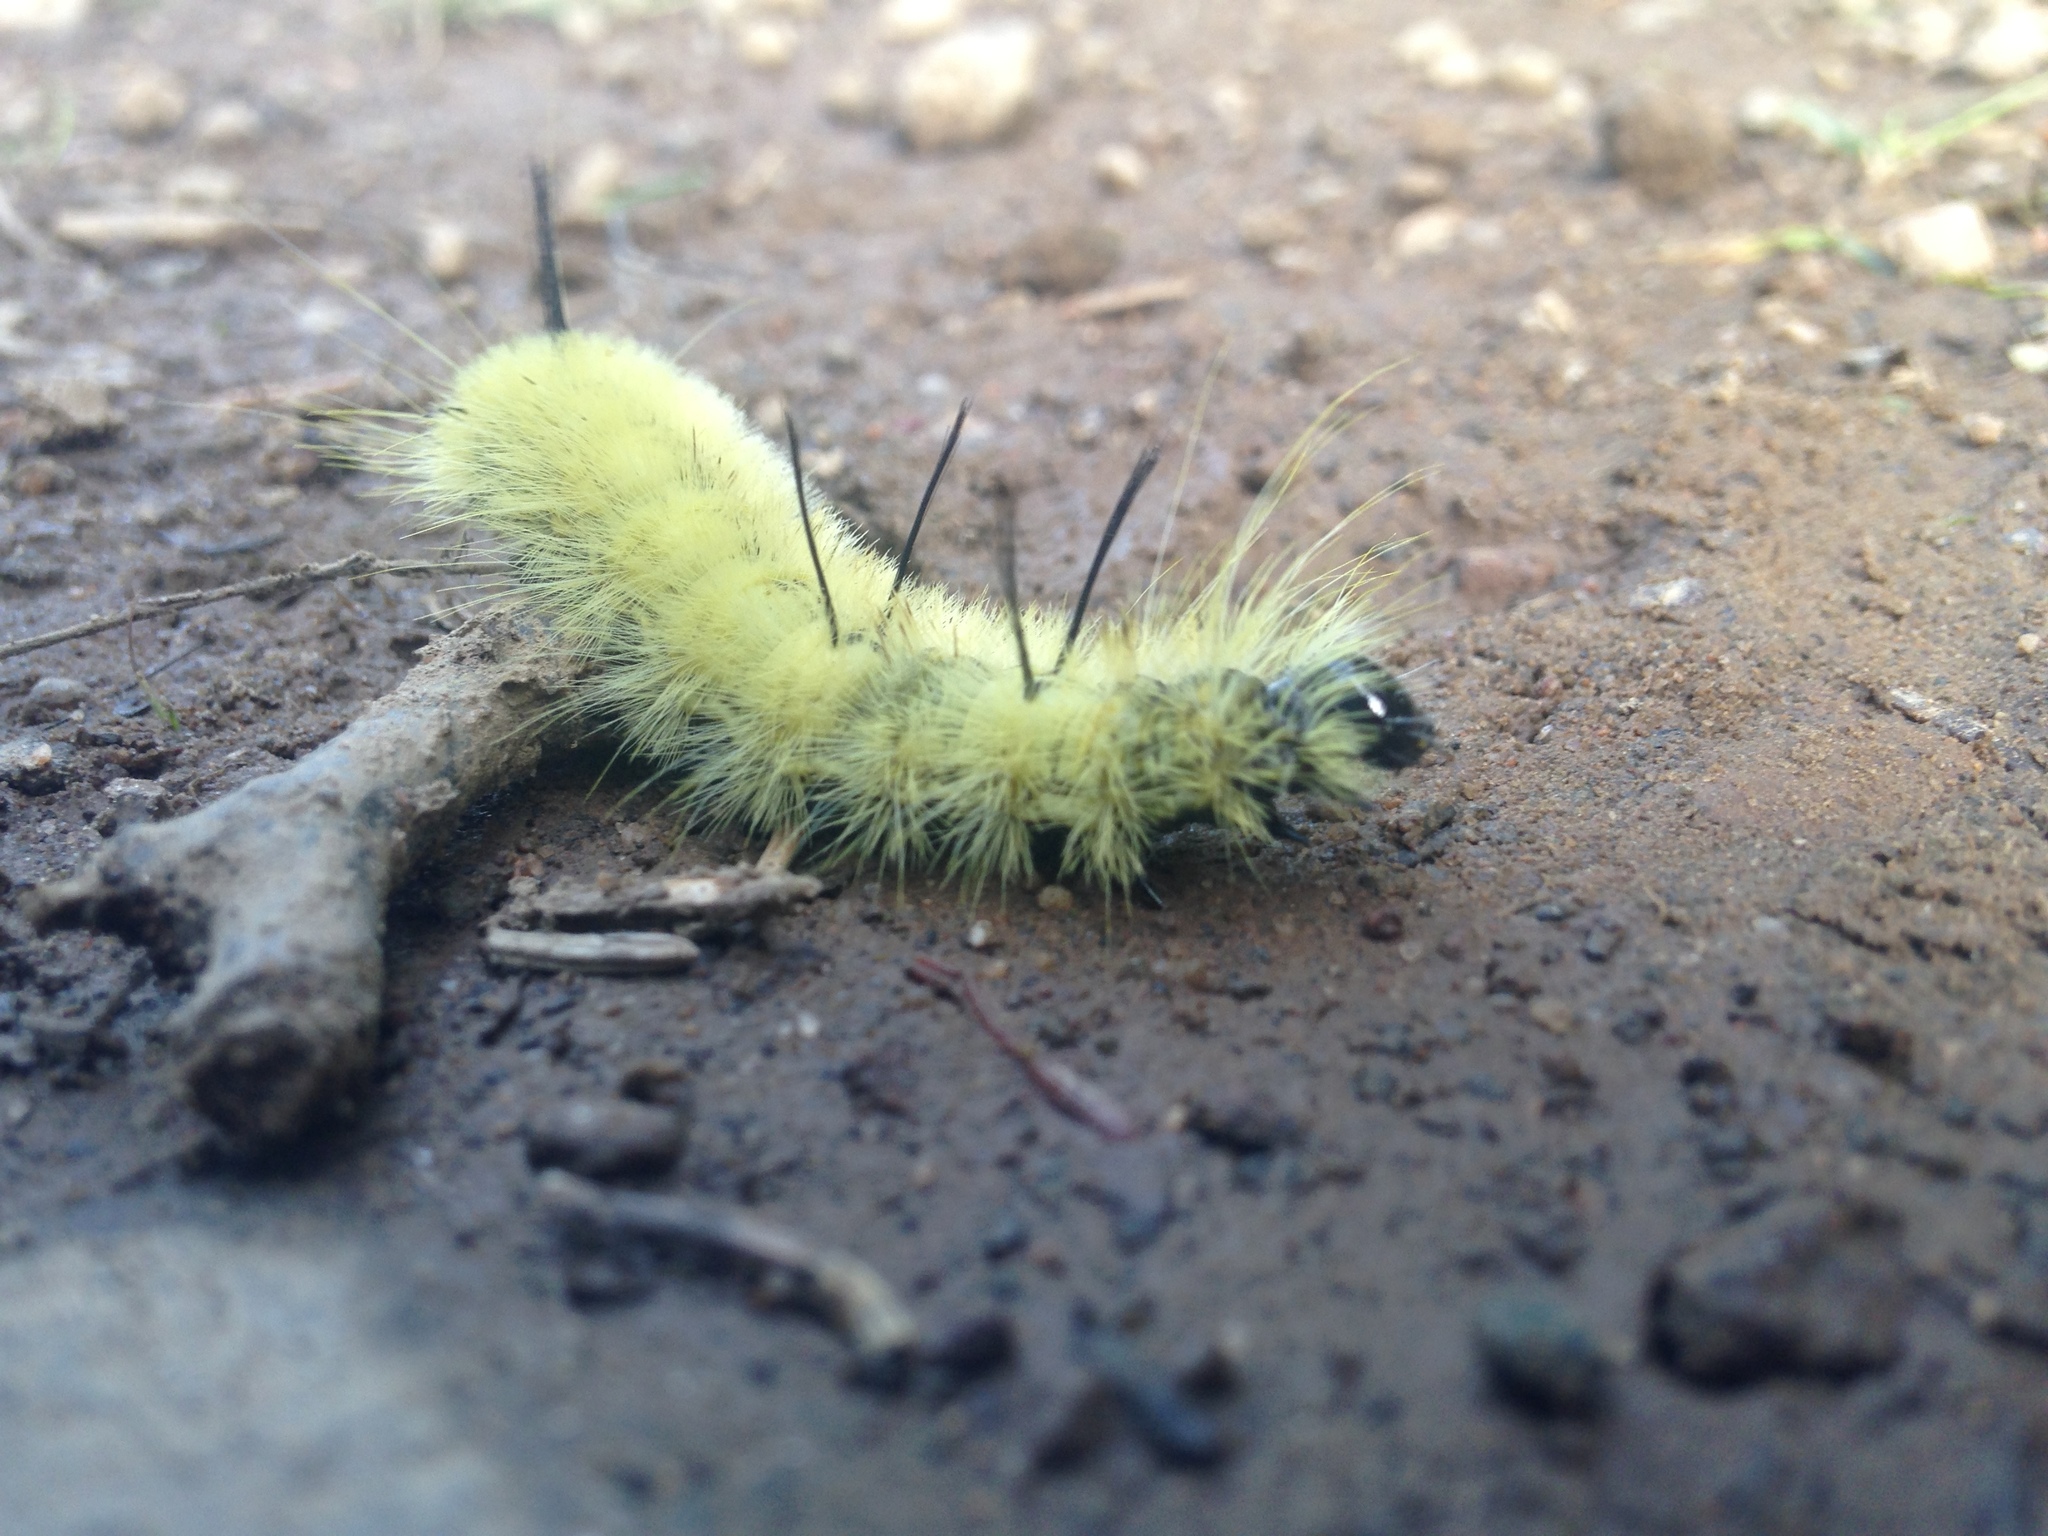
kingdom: Animalia
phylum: Arthropoda
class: Insecta
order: Lepidoptera
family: Noctuidae
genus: Acronicta
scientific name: Acronicta americana
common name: American dagger
